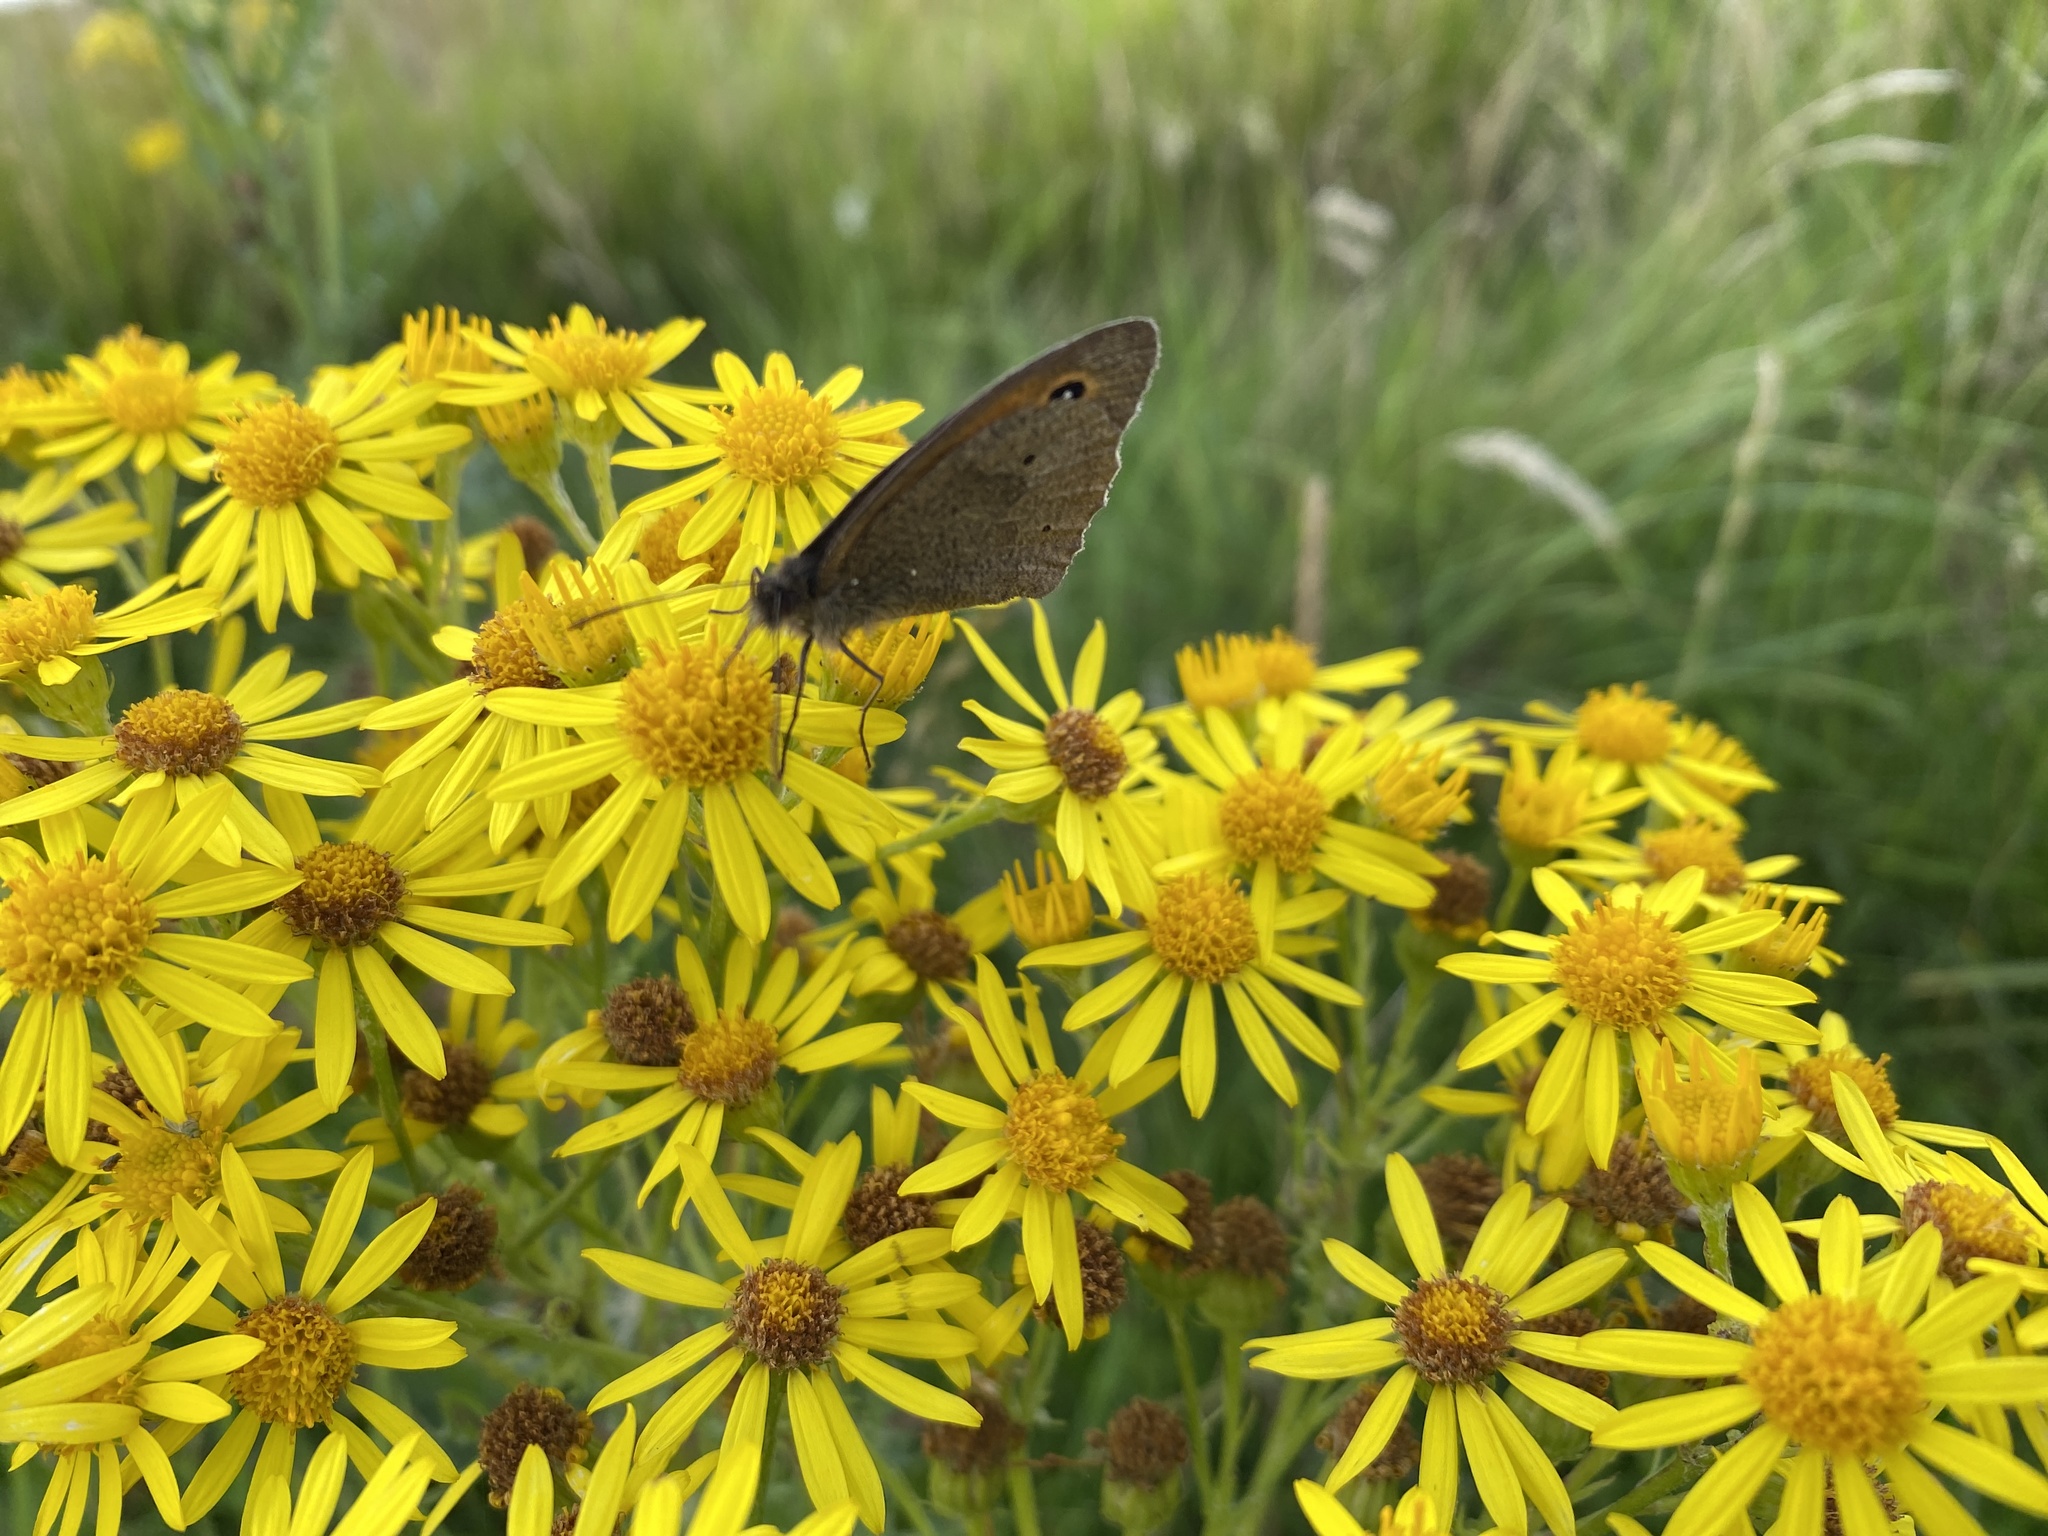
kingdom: Animalia
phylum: Arthropoda
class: Insecta
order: Lepidoptera
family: Nymphalidae
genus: Maniola
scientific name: Maniola jurtina
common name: Meadow brown
